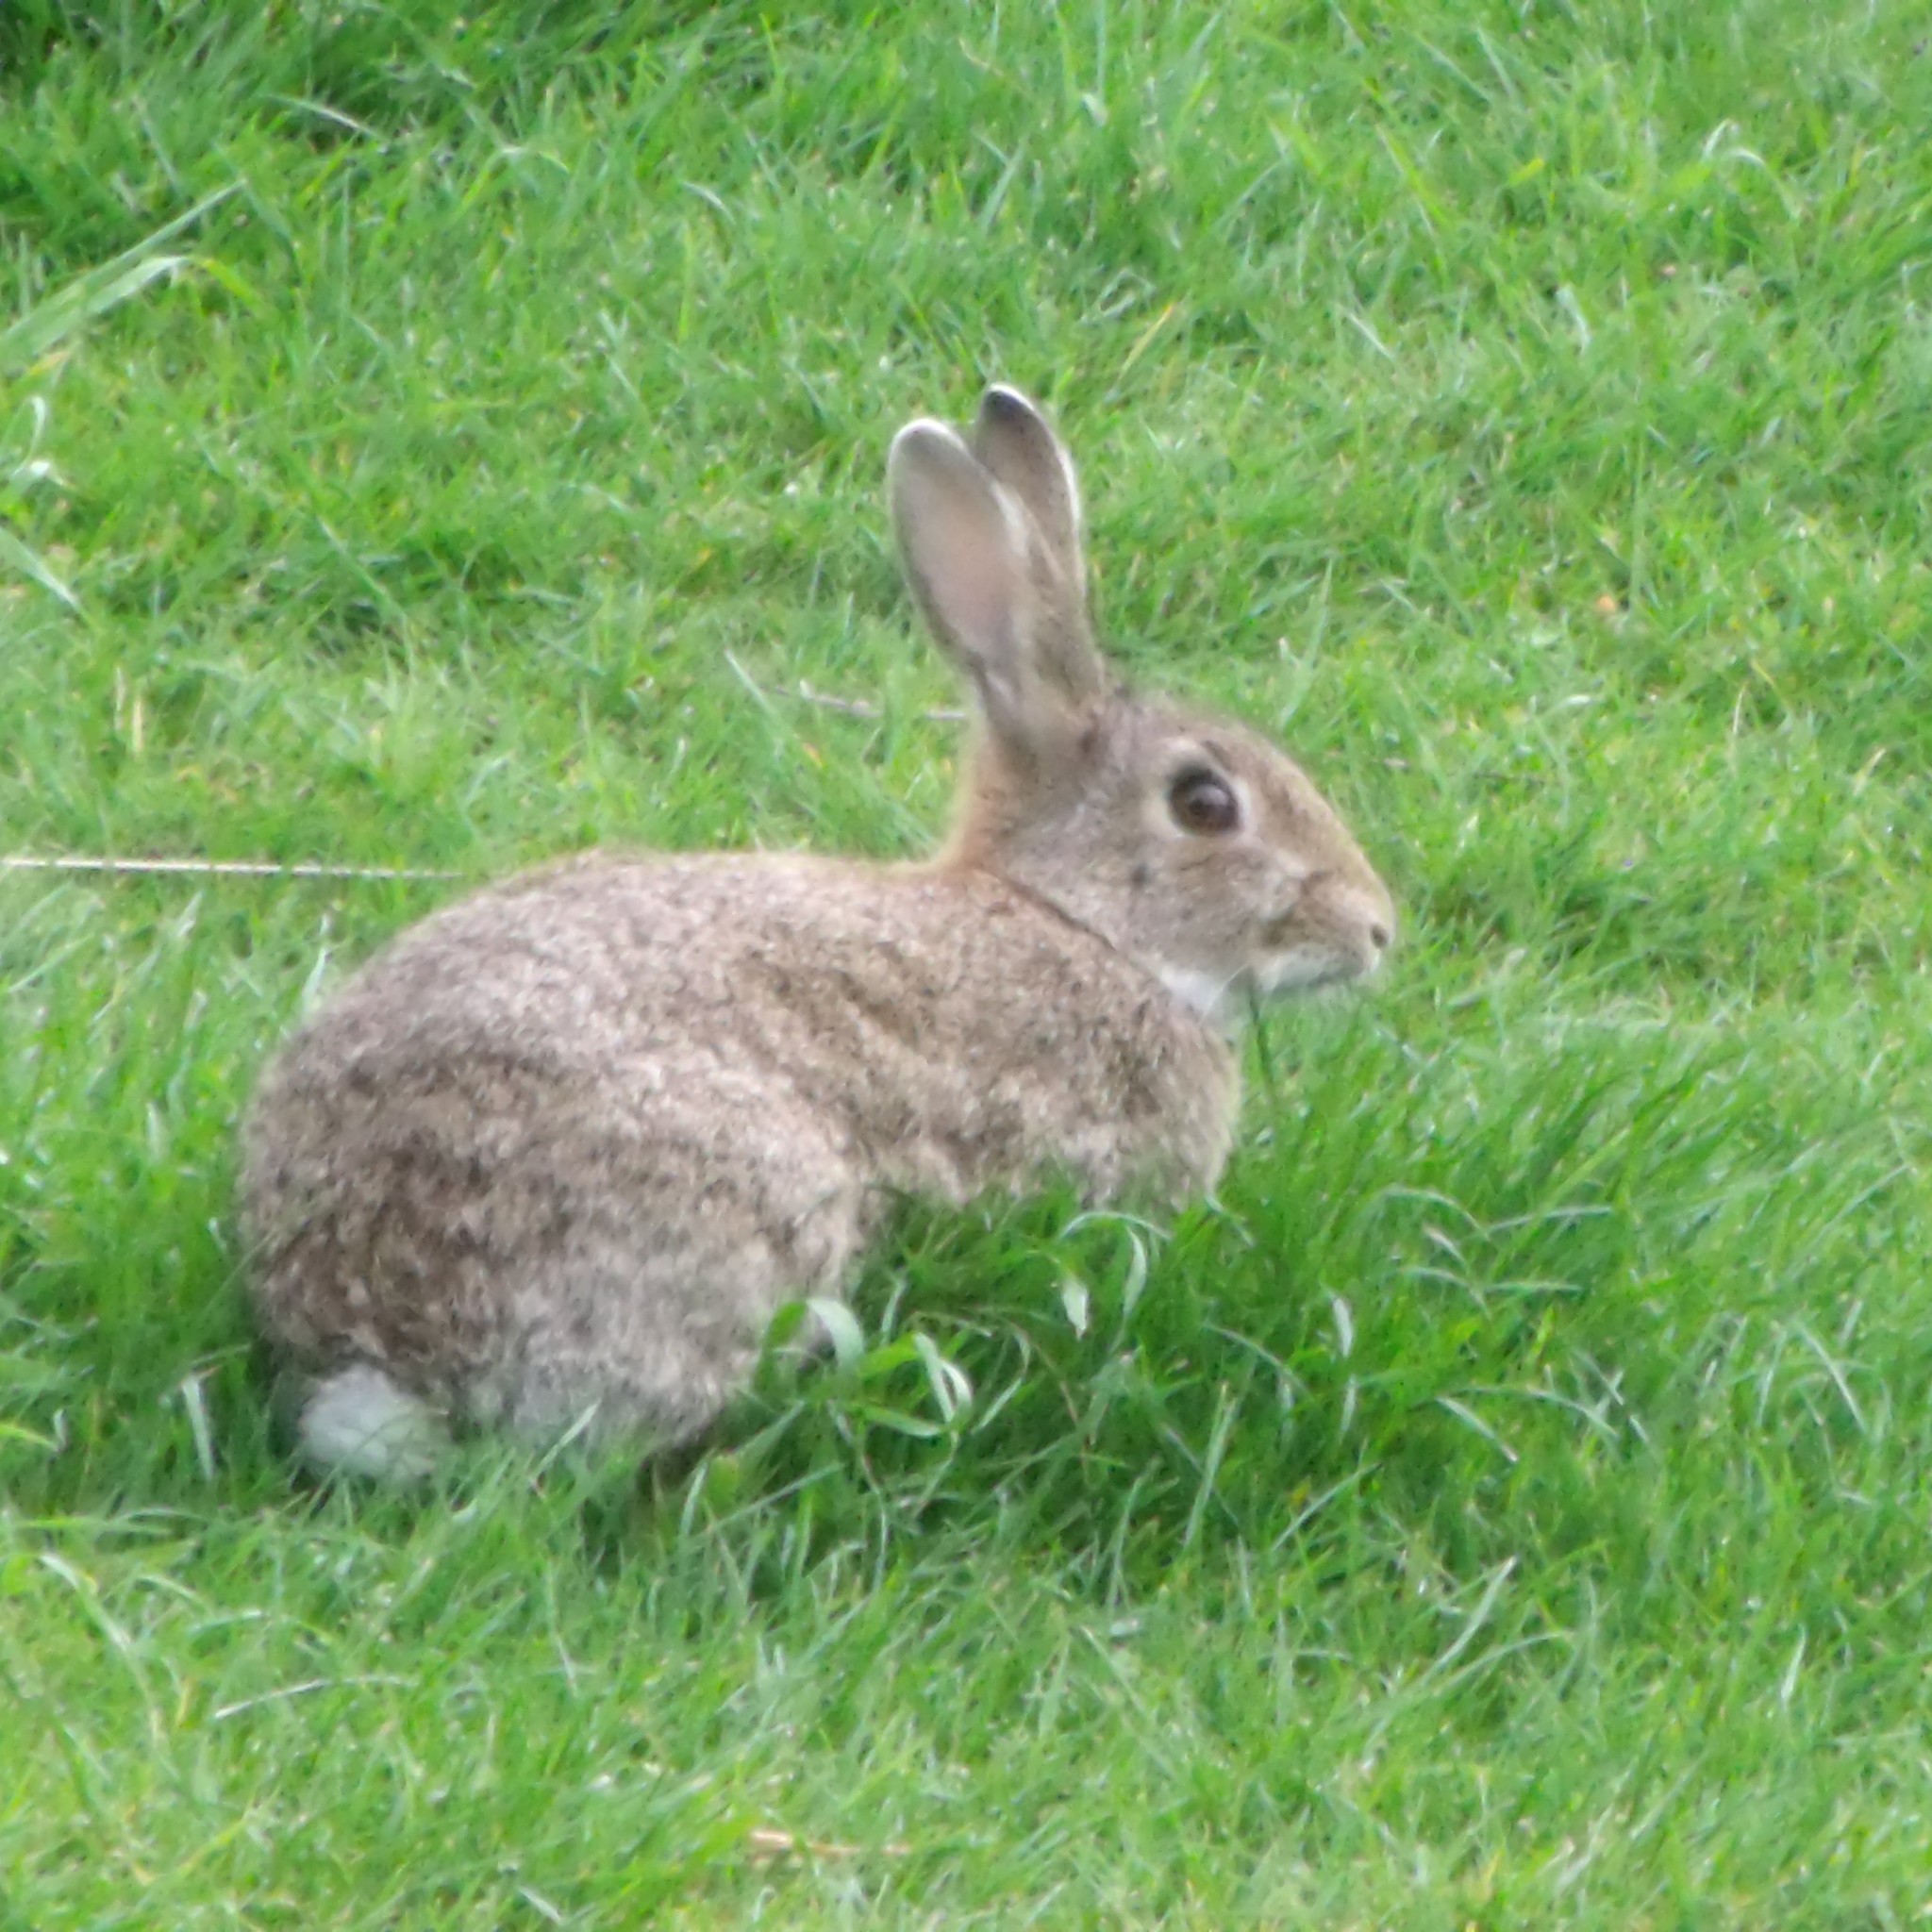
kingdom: Animalia
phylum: Chordata
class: Mammalia
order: Lagomorpha
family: Leporidae
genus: Oryctolagus
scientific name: Oryctolagus cuniculus
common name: European rabbit
